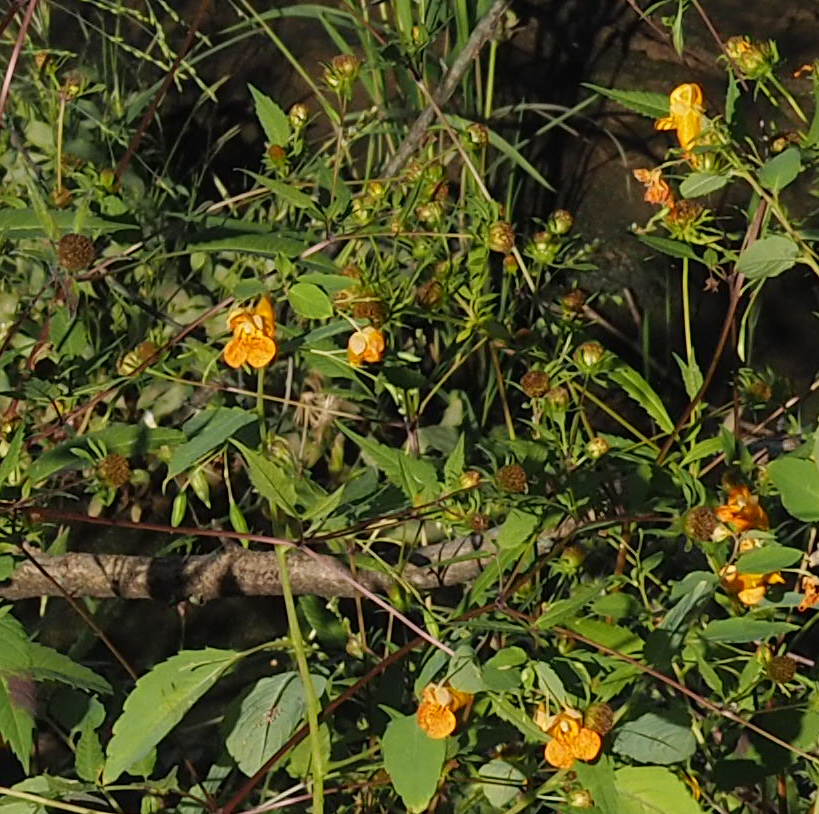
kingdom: Plantae
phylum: Tracheophyta
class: Magnoliopsida
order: Ericales
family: Balsaminaceae
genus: Impatiens
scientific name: Impatiens capensis
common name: Orange balsam
